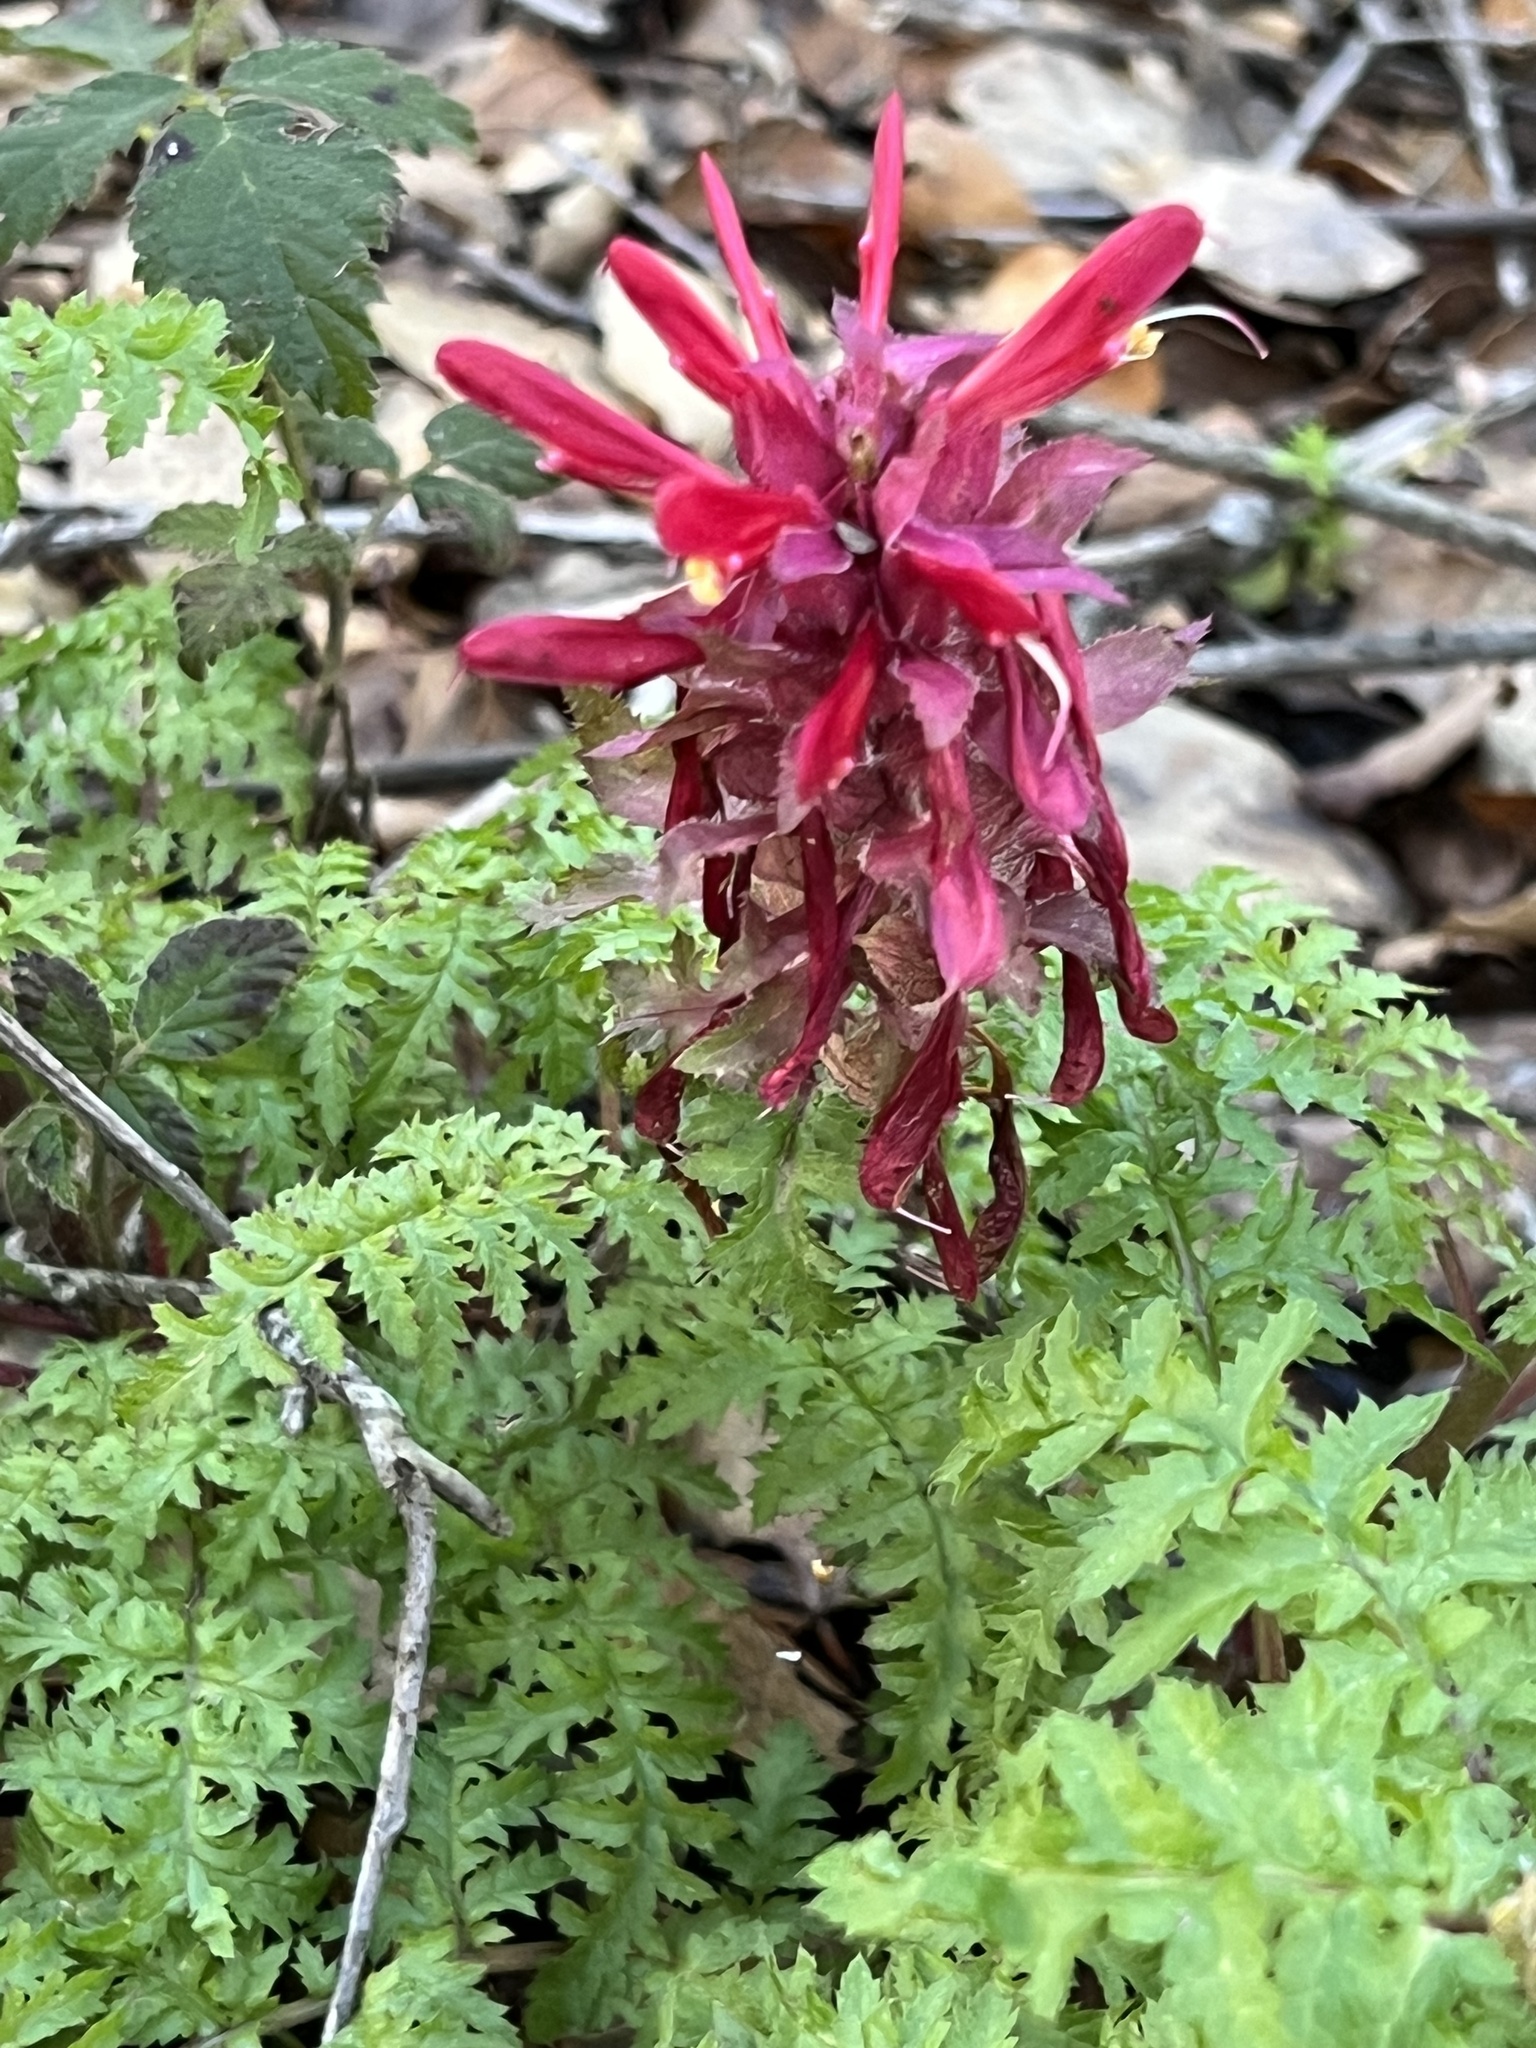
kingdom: Plantae
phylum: Tracheophyta
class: Magnoliopsida
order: Lamiales
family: Orobanchaceae
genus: Pedicularis
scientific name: Pedicularis densiflora
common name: Indian warrior
